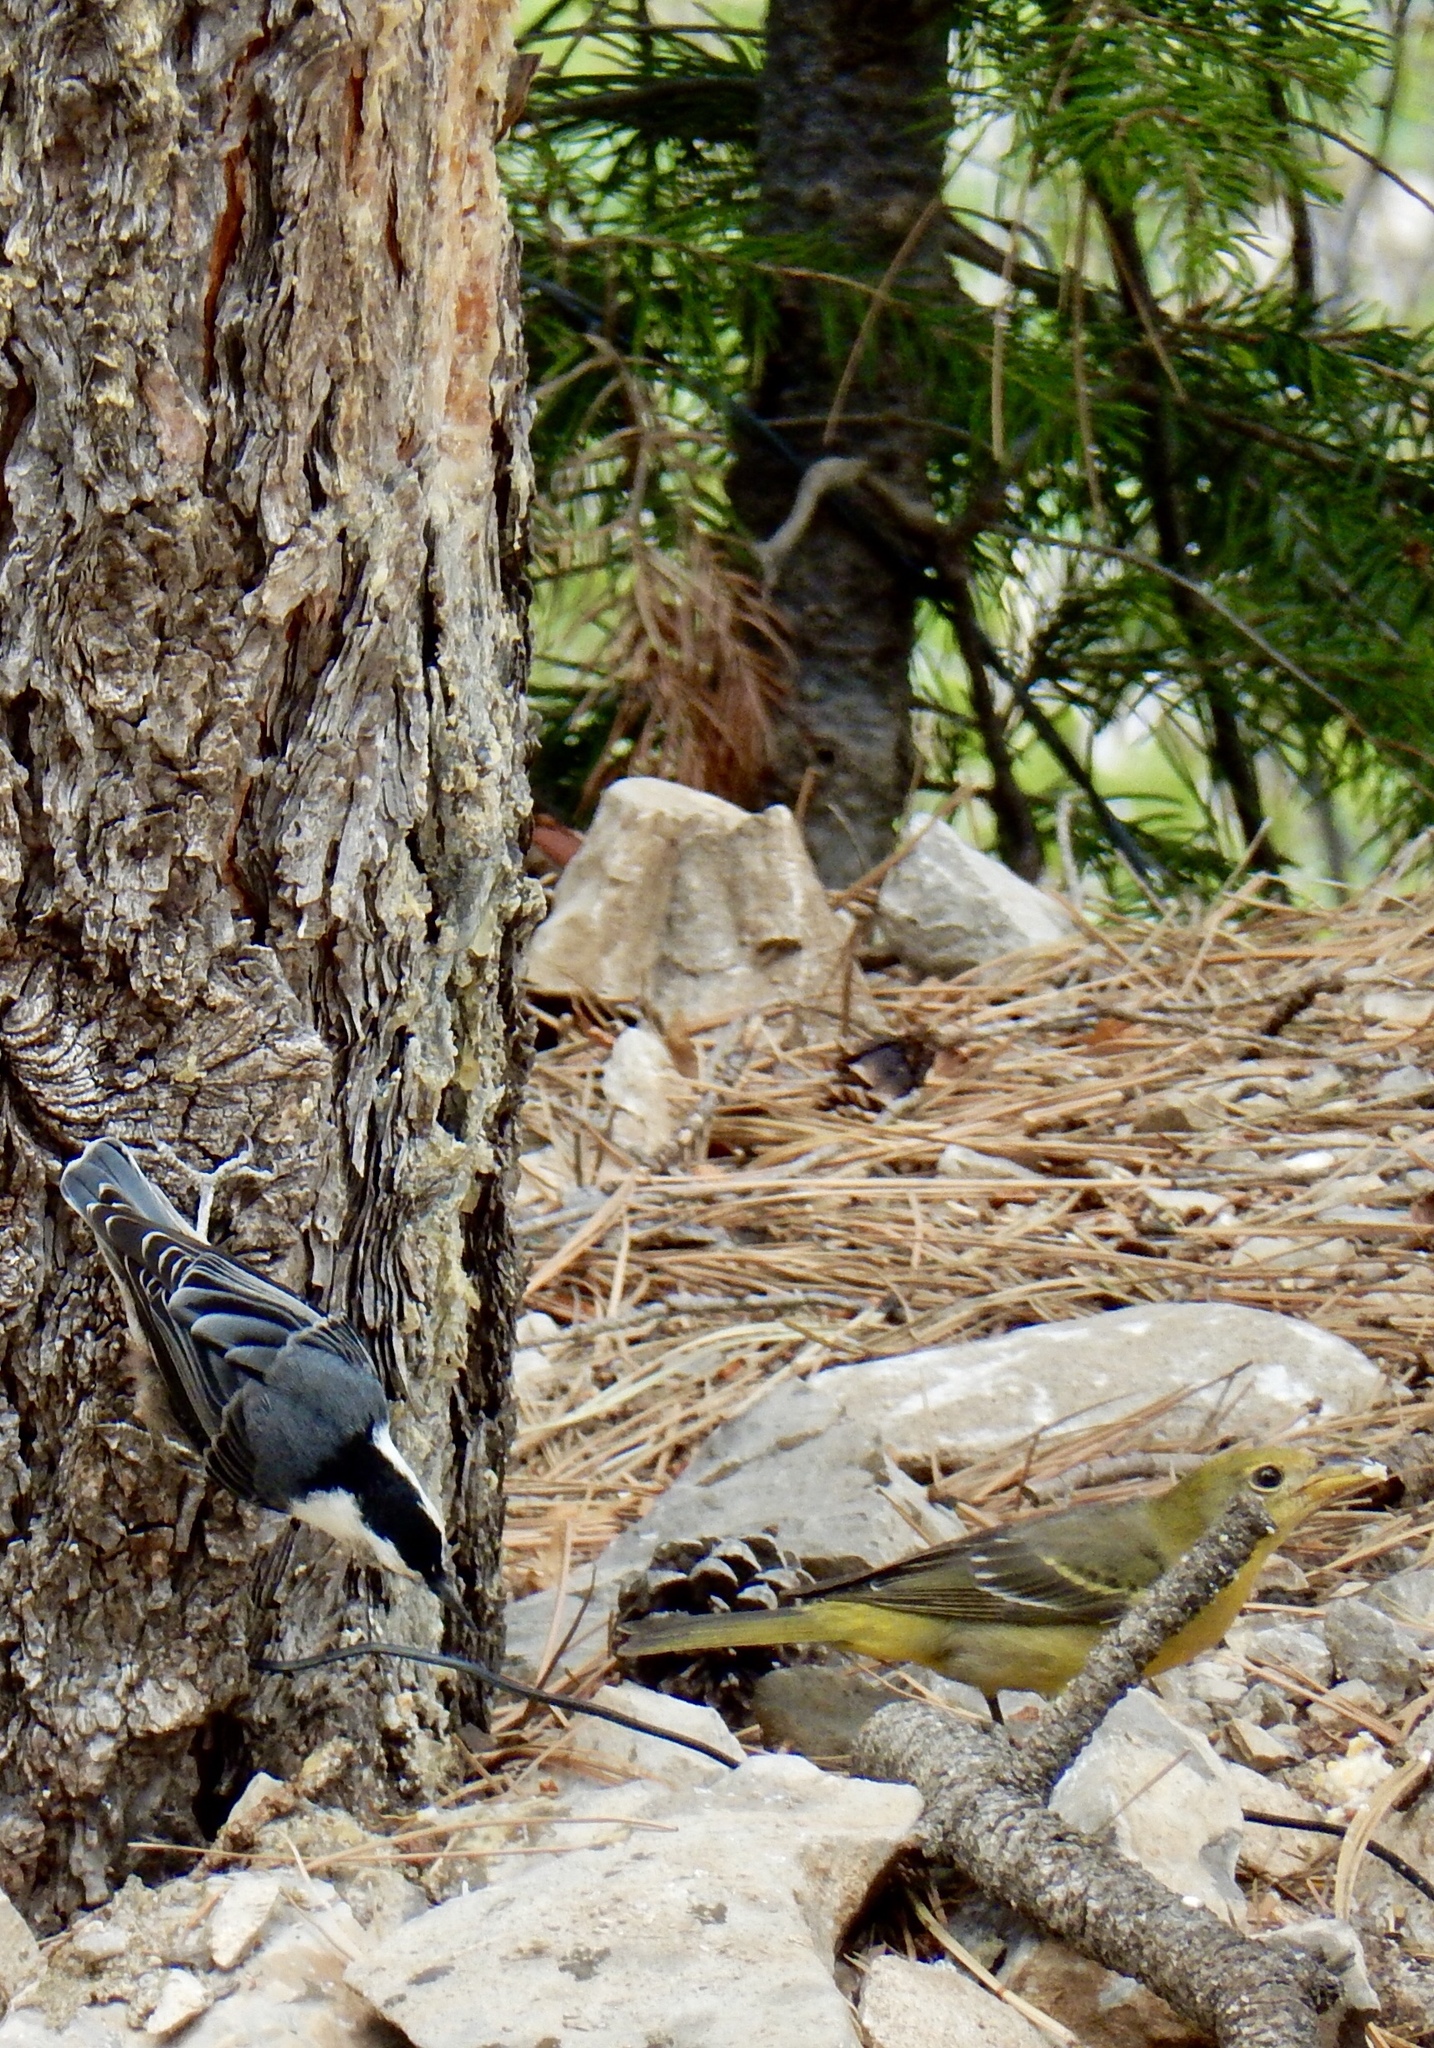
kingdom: Animalia
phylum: Chordata
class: Aves
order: Passeriformes
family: Sittidae
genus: Sitta
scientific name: Sitta carolinensis
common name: White-breasted nuthatch
